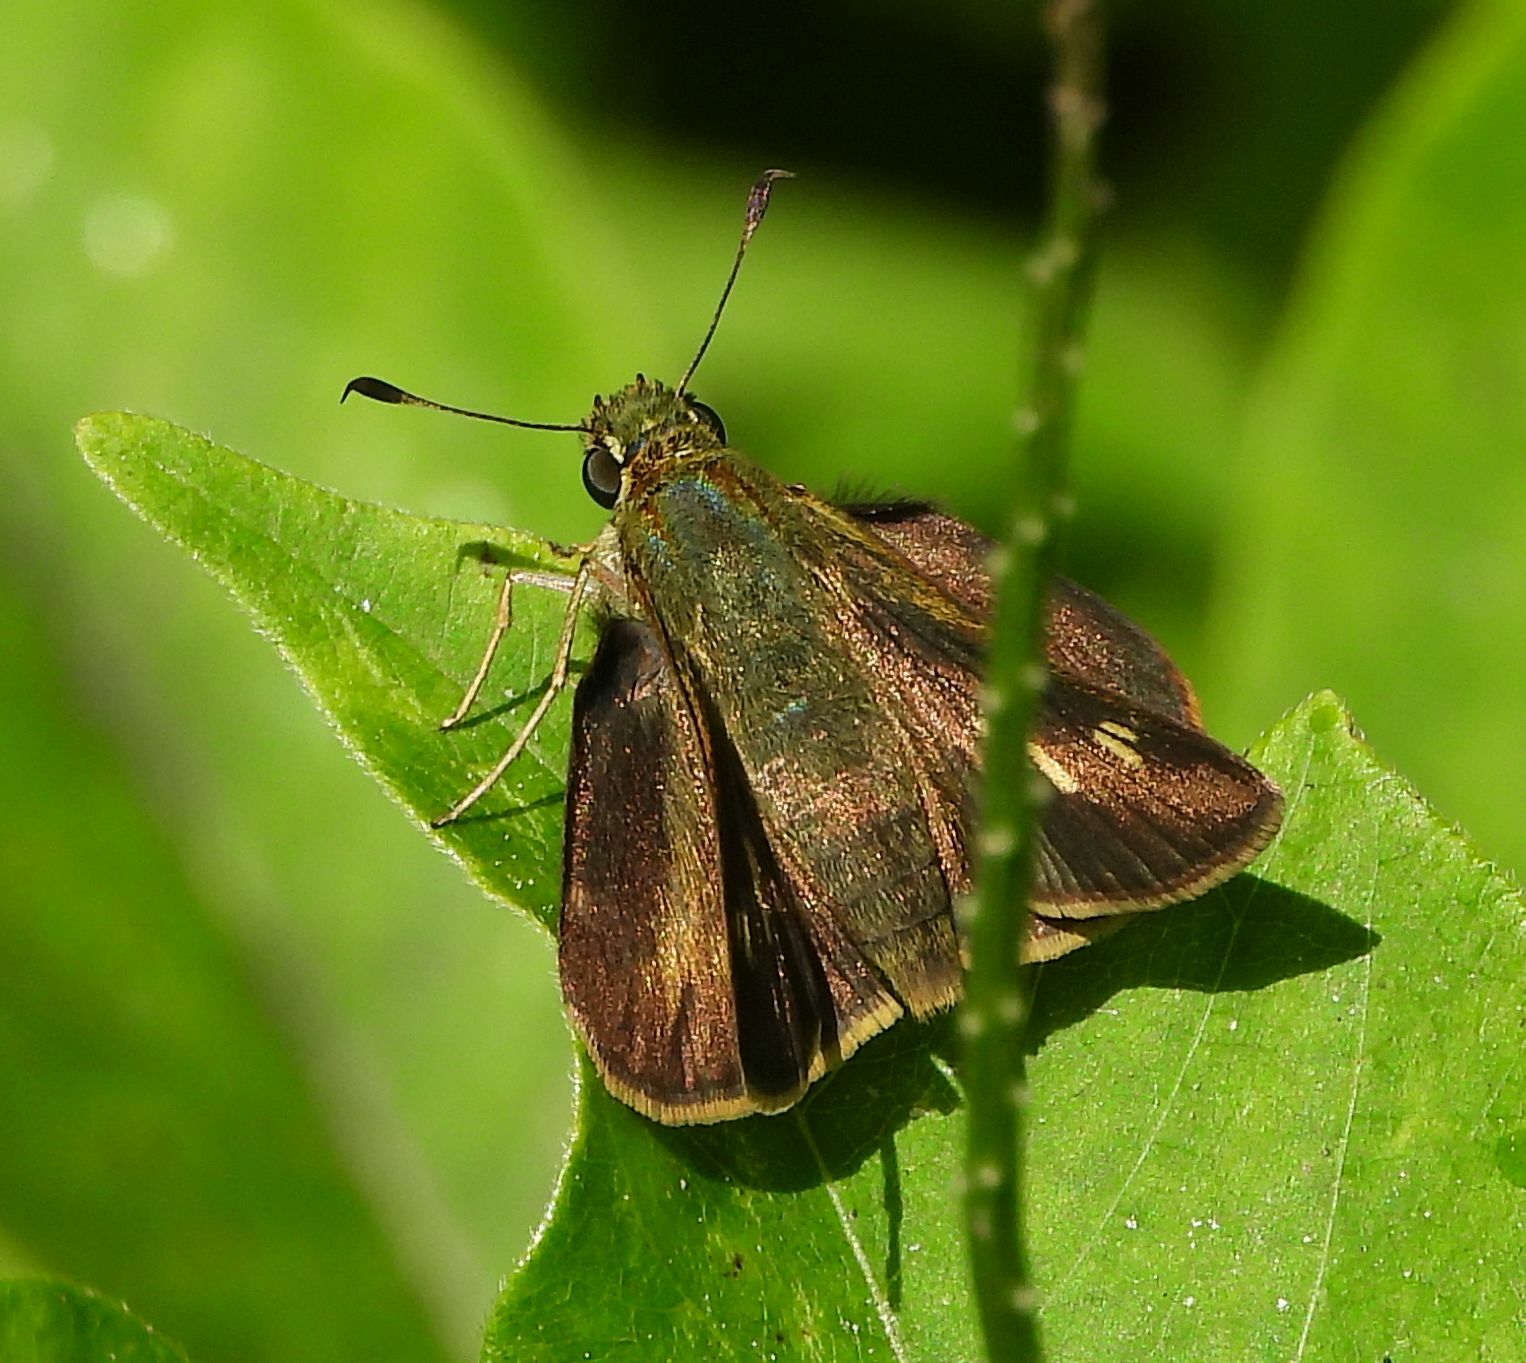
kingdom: Animalia
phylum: Arthropoda
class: Insecta
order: Lepidoptera
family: Hesperiidae
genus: Polites
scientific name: Polites egeremet
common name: Northern broken-dash
